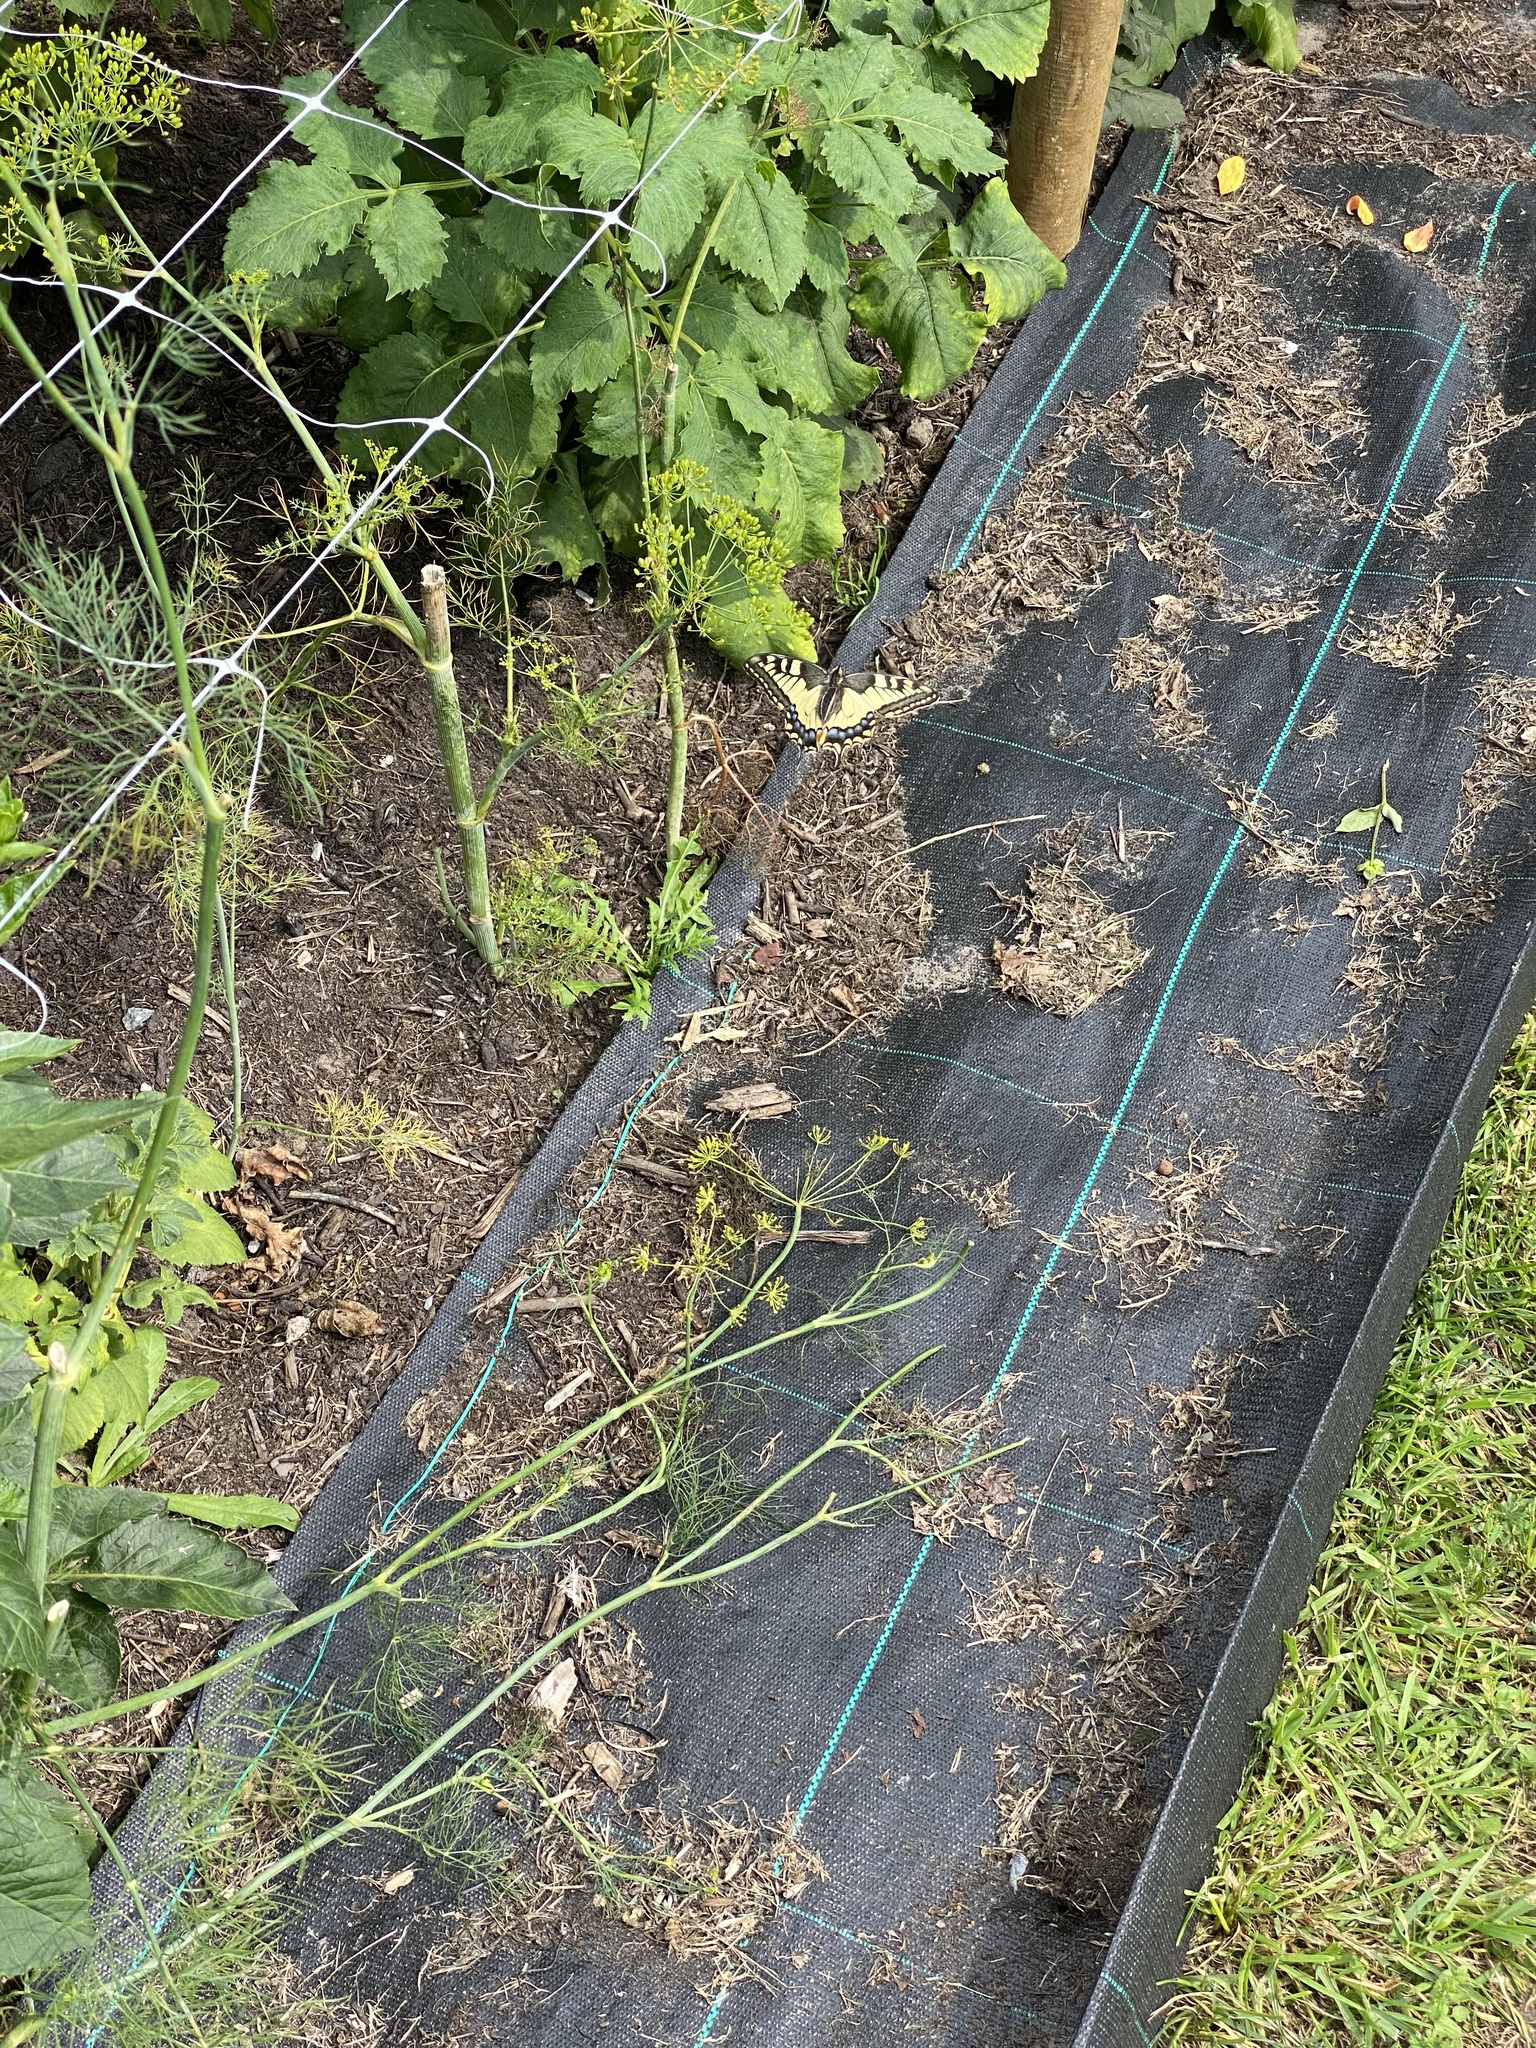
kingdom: Animalia
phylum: Arthropoda
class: Insecta
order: Lepidoptera
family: Papilionidae
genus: Papilio
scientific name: Papilio machaon
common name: Swallowtail
